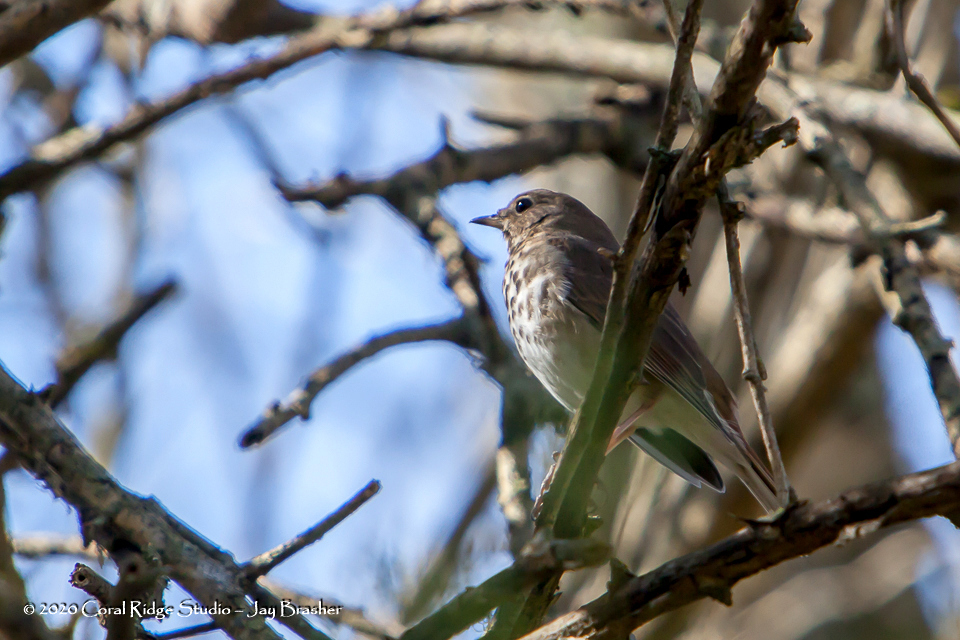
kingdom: Animalia
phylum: Chordata
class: Aves
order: Passeriformes
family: Turdidae
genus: Catharus
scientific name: Catharus guttatus
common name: Hermit thrush
